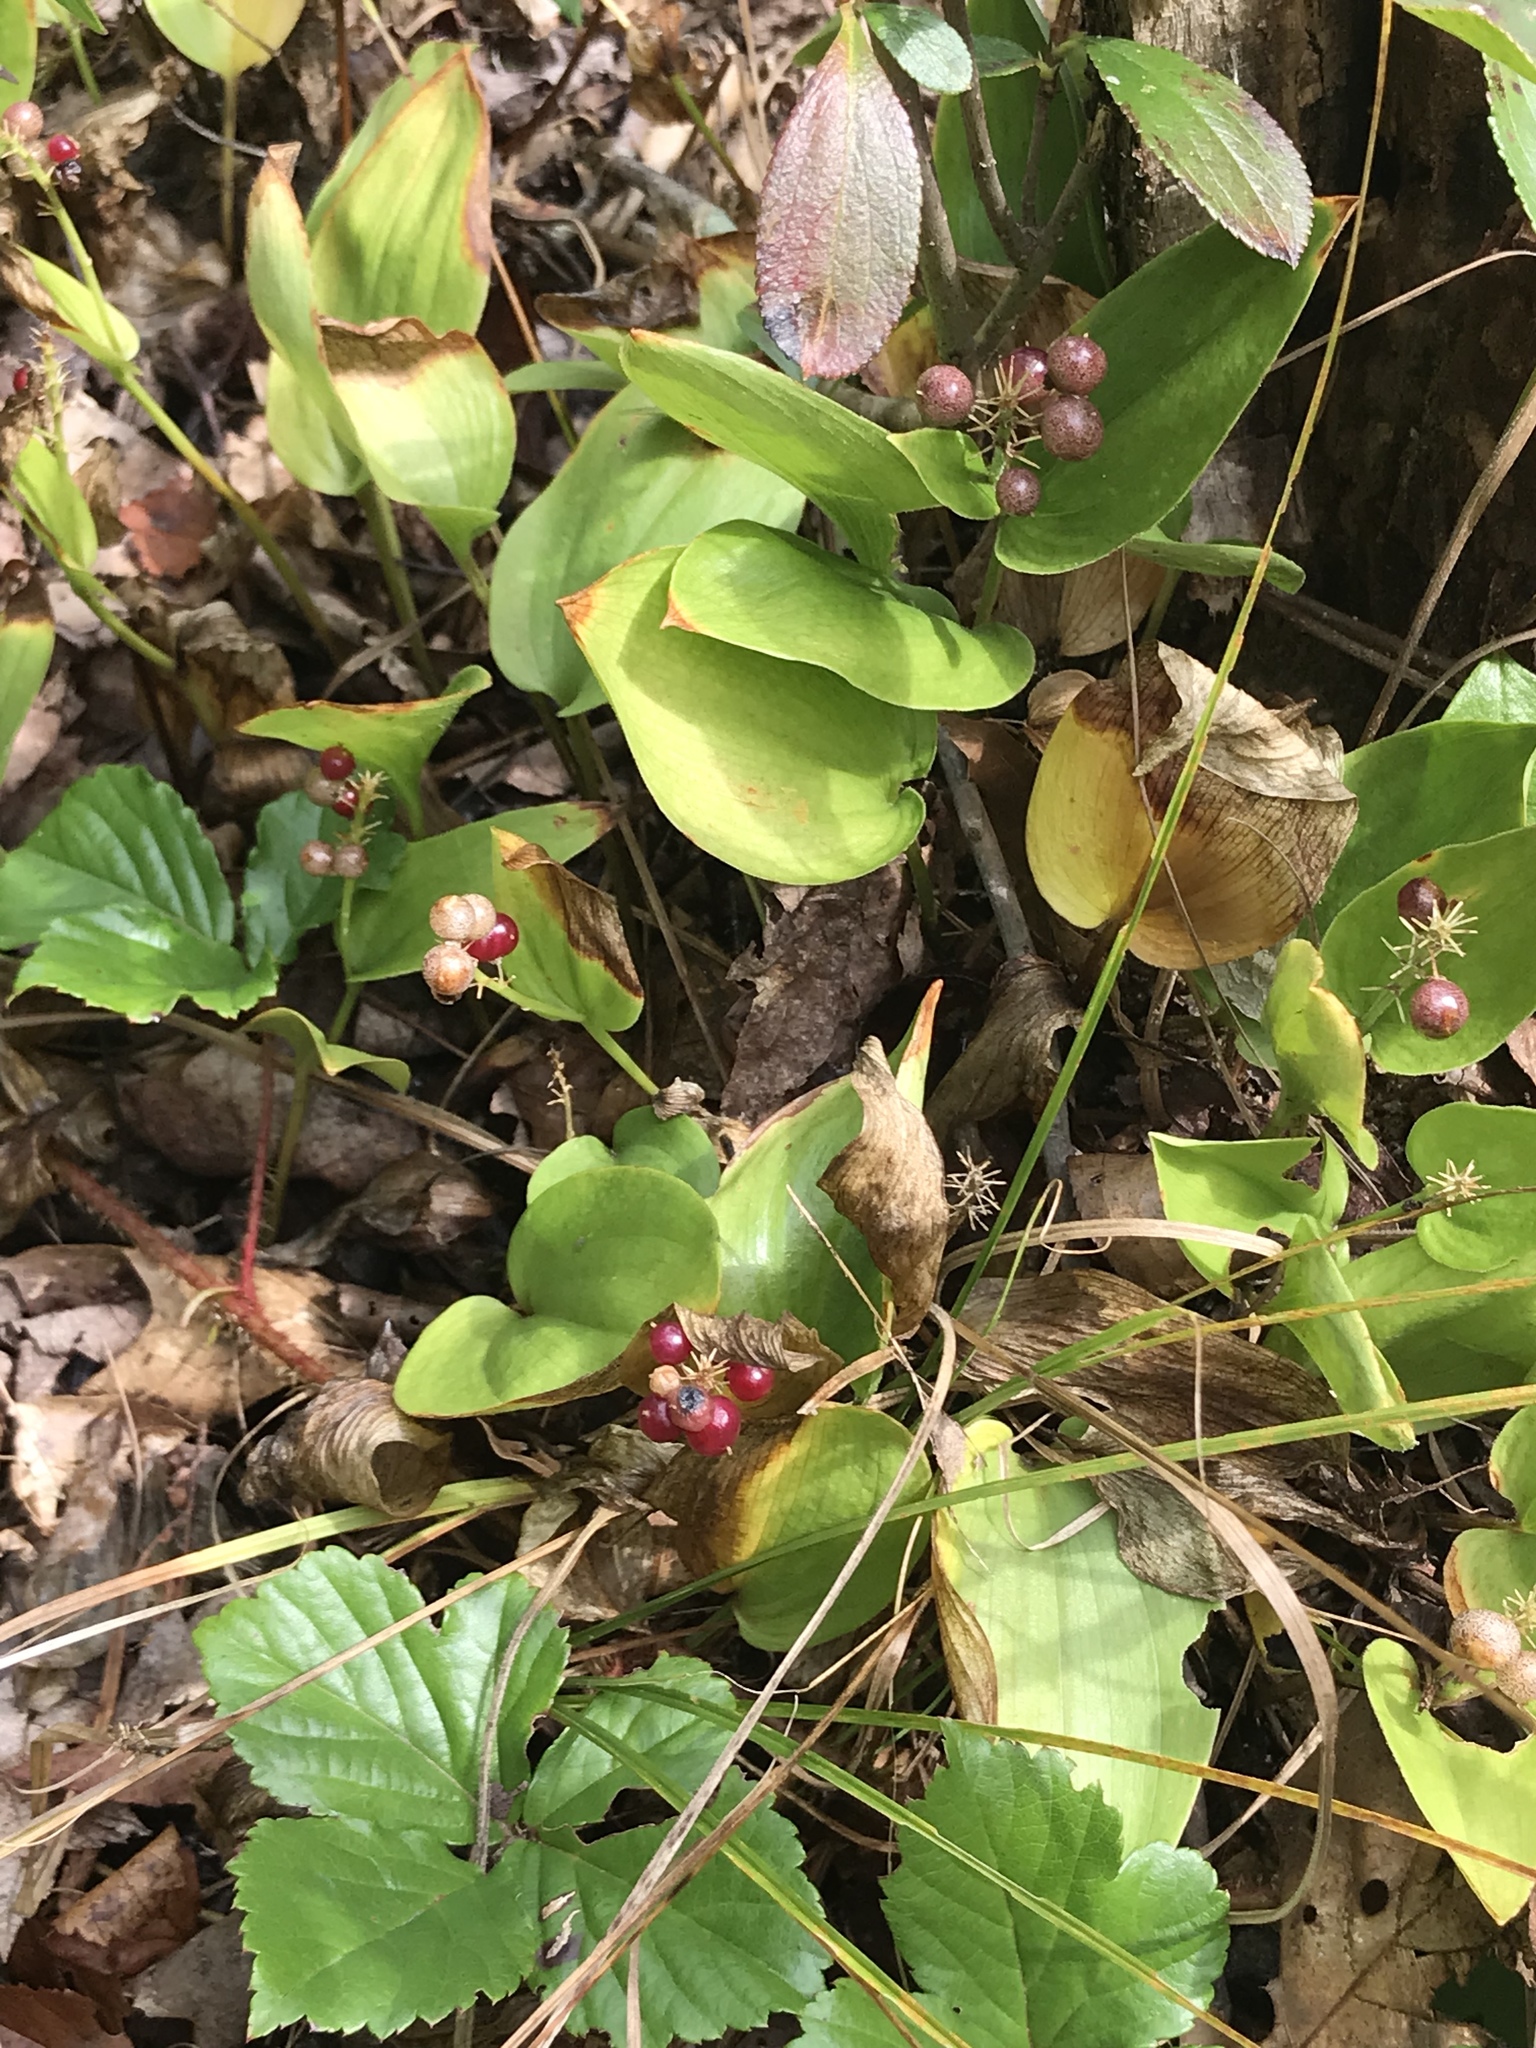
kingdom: Plantae
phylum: Tracheophyta
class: Liliopsida
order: Asparagales
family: Asparagaceae
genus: Maianthemum
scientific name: Maianthemum canadense
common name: False lily-of-the-valley
